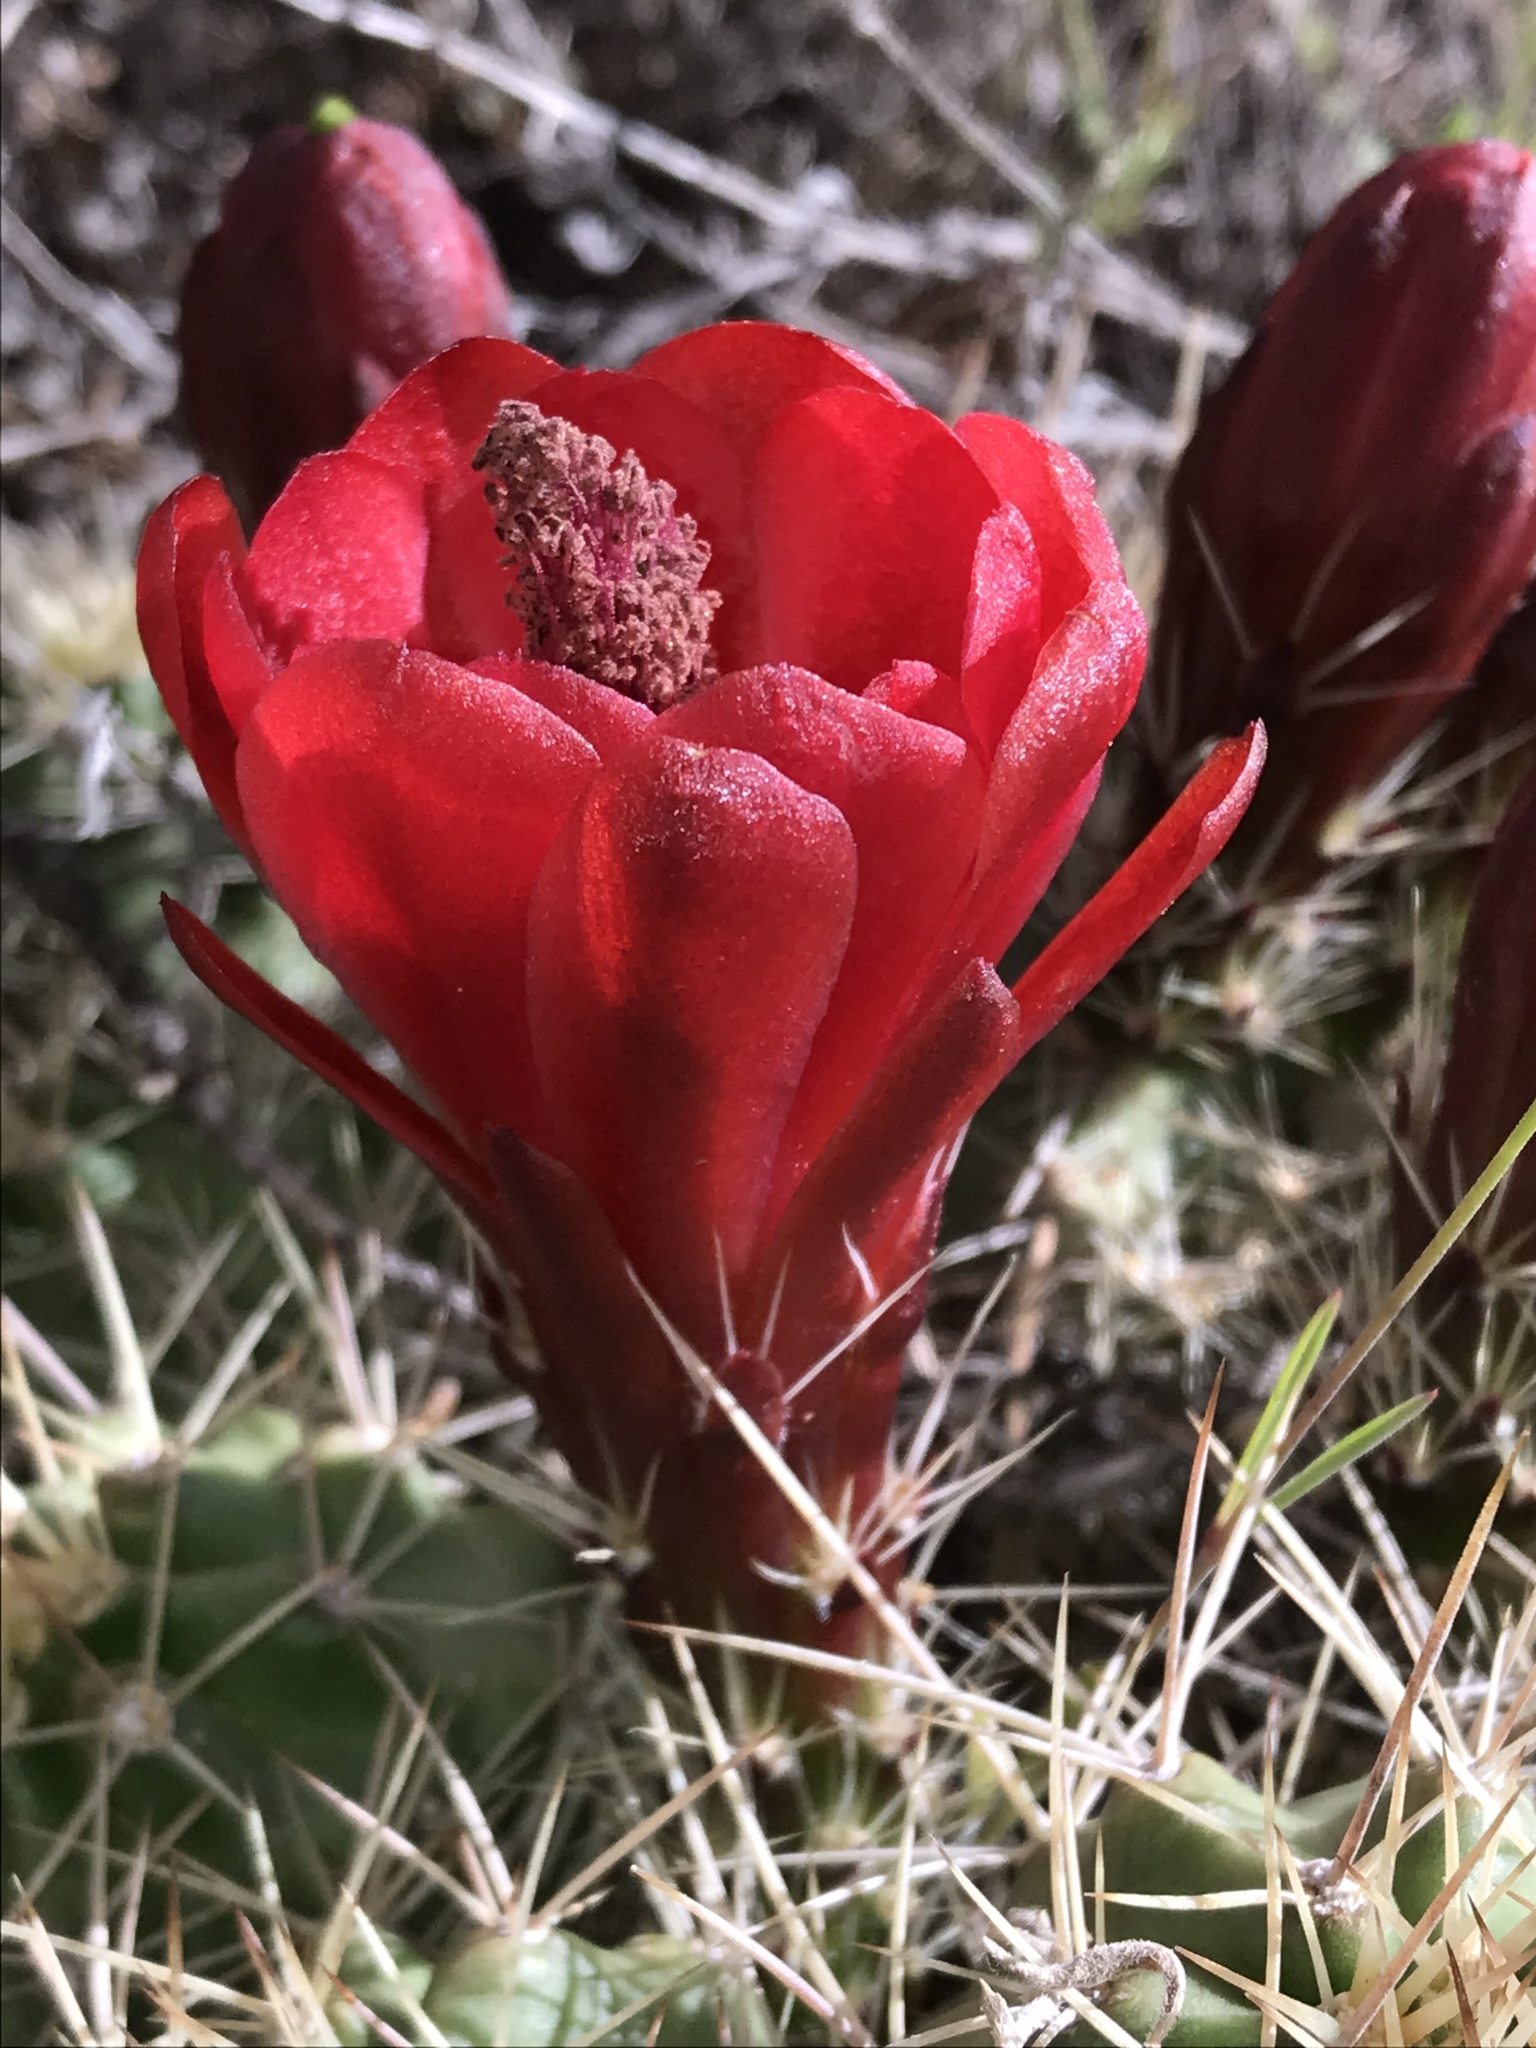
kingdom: Plantae
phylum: Tracheophyta
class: Magnoliopsida
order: Caryophyllales
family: Cactaceae
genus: Echinocereus
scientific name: Echinocereus triglochidiatus
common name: Claretcup hedgehog
